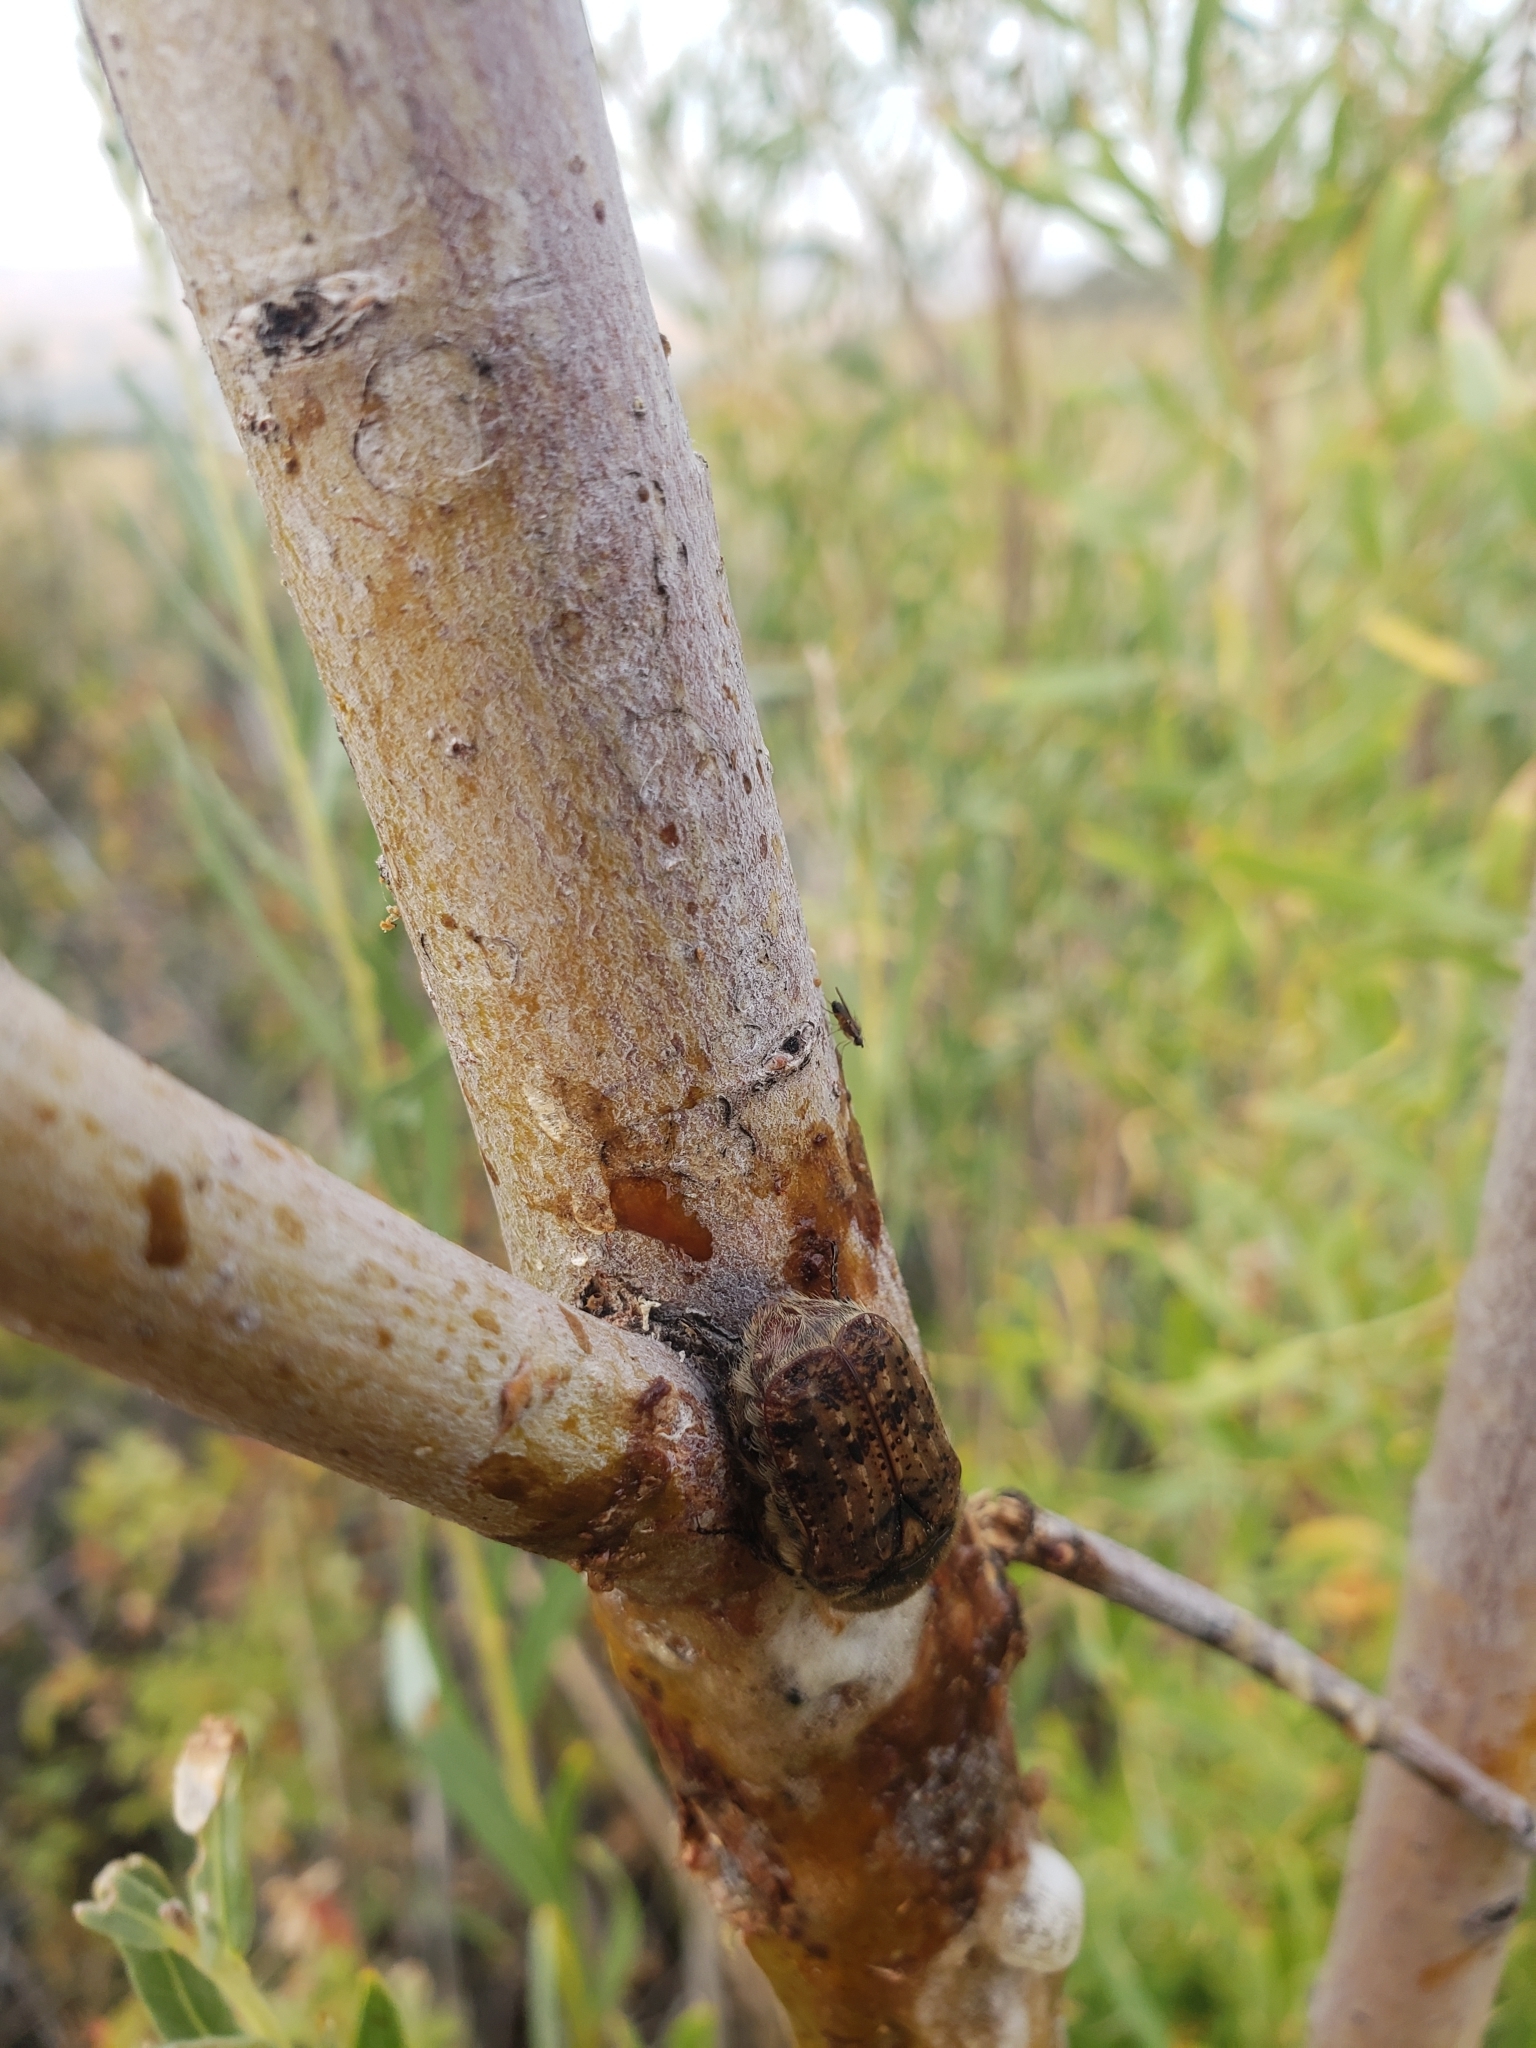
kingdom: Animalia
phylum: Arthropoda
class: Insecta
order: Coleoptera
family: Scarabaeidae
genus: Euphoria
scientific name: Euphoria inda
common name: Bumble flower beetle
